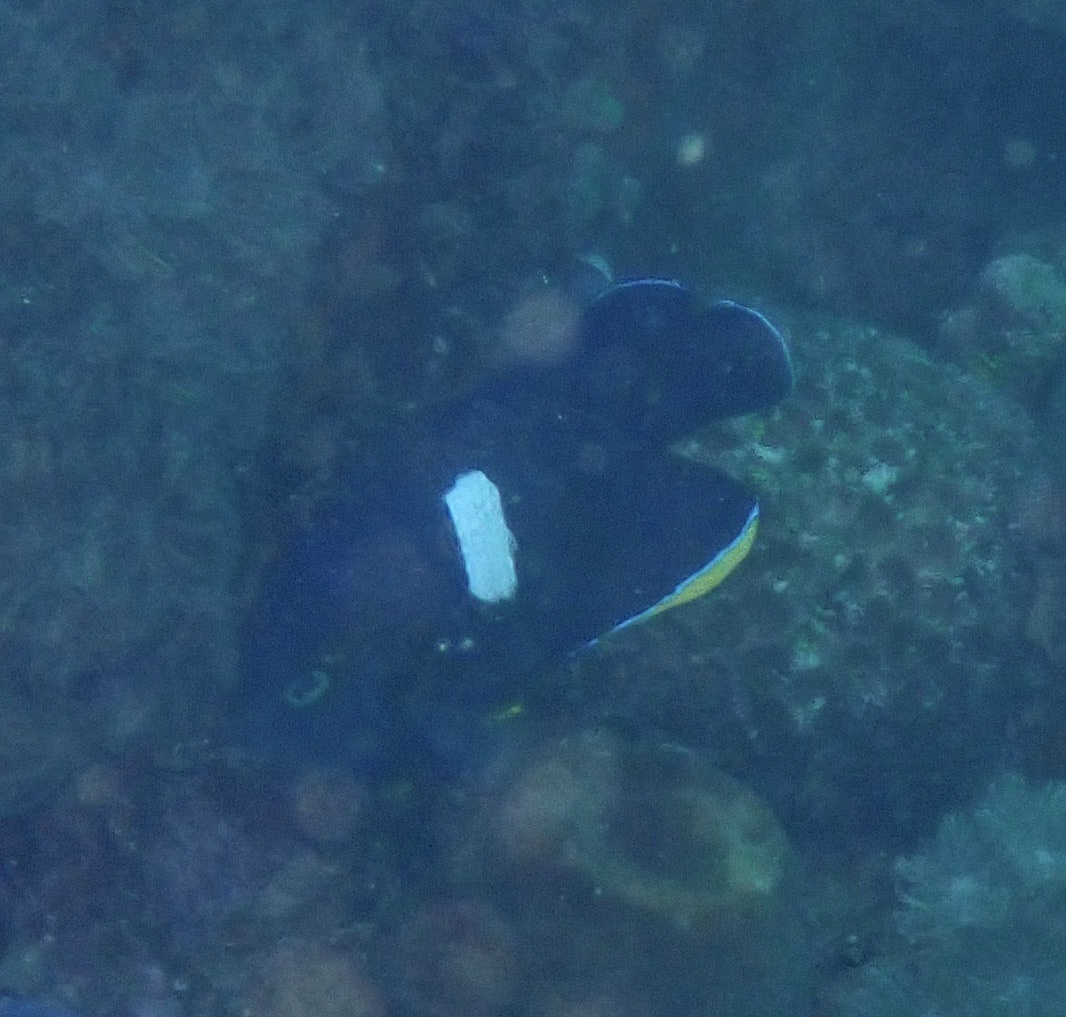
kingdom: Animalia
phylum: Chordata
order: Perciformes
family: Pomacanthidae
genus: Centropyge
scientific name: Centropyge tibicen
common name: Keyhole angelfish
